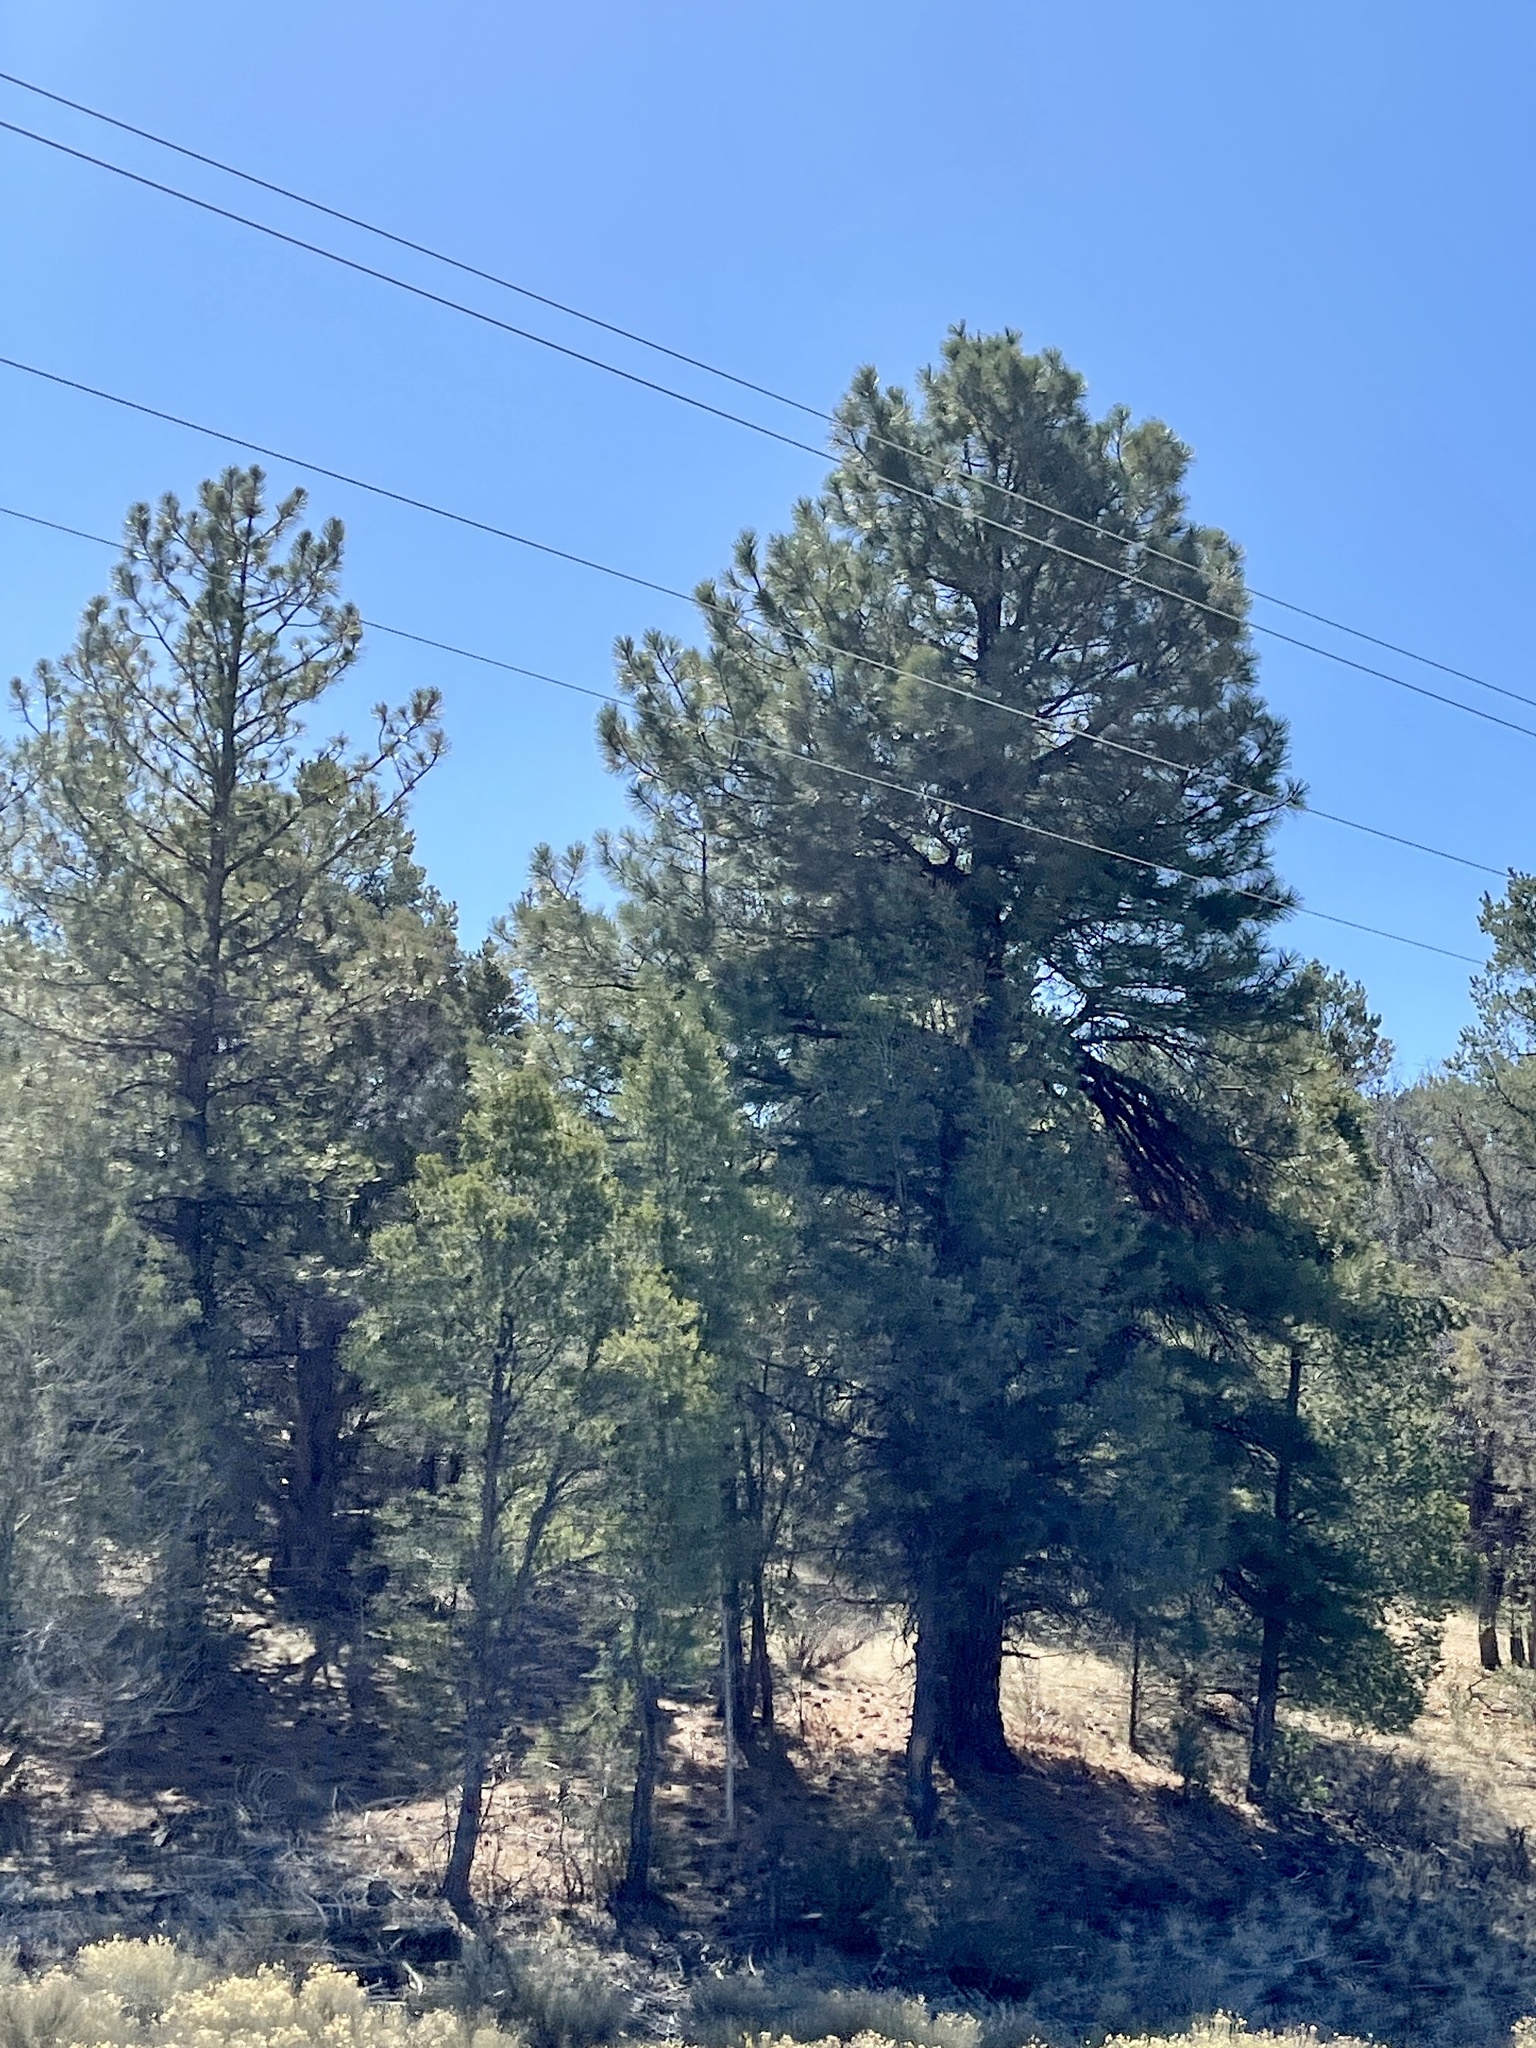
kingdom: Plantae
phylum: Tracheophyta
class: Pinopsida
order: Pinales
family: Pinaceae
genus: Pinus
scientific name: Pinus ponderosa
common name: Western yellow-pine
